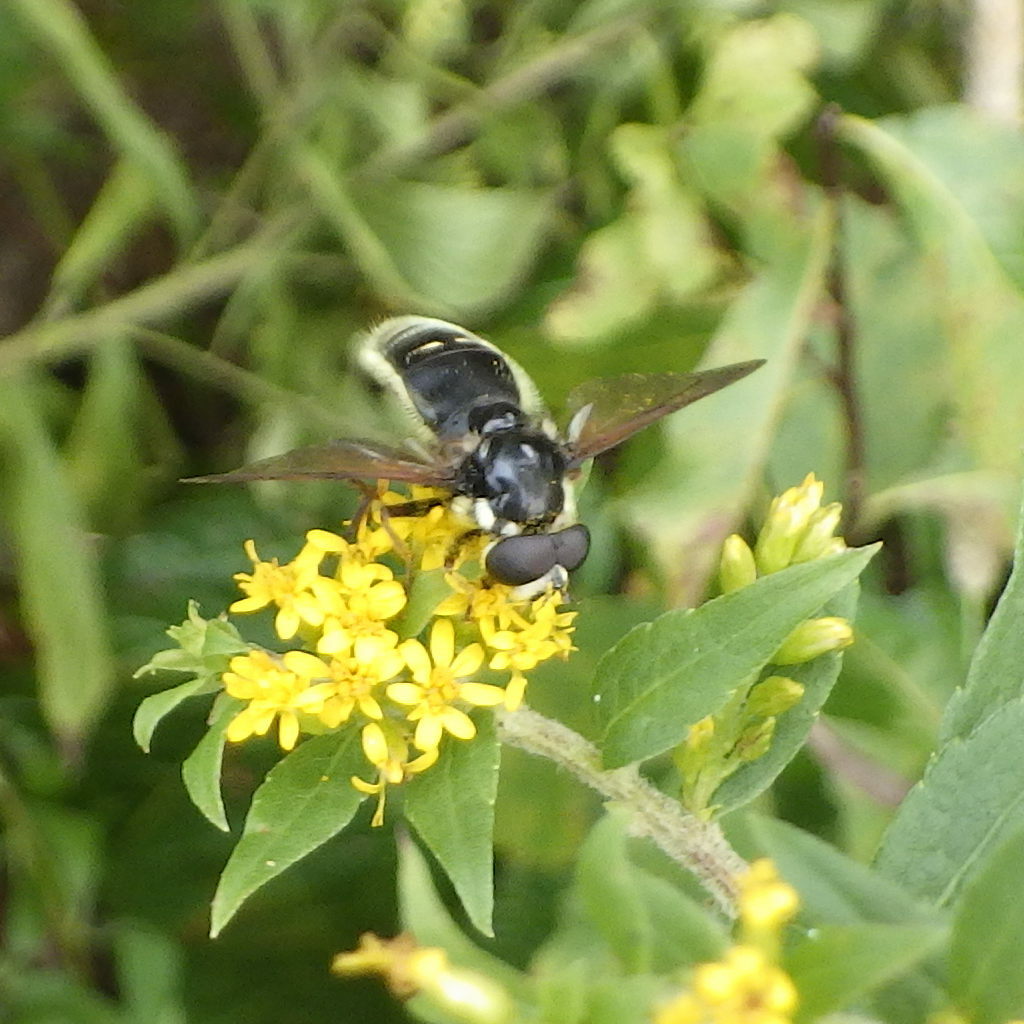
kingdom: Animalia
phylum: Arthropoda
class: Insecta
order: Diptera
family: Syrphidae
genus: Sericomyia
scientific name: Sericomyia militaris
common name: Narrow-banded pond fly
